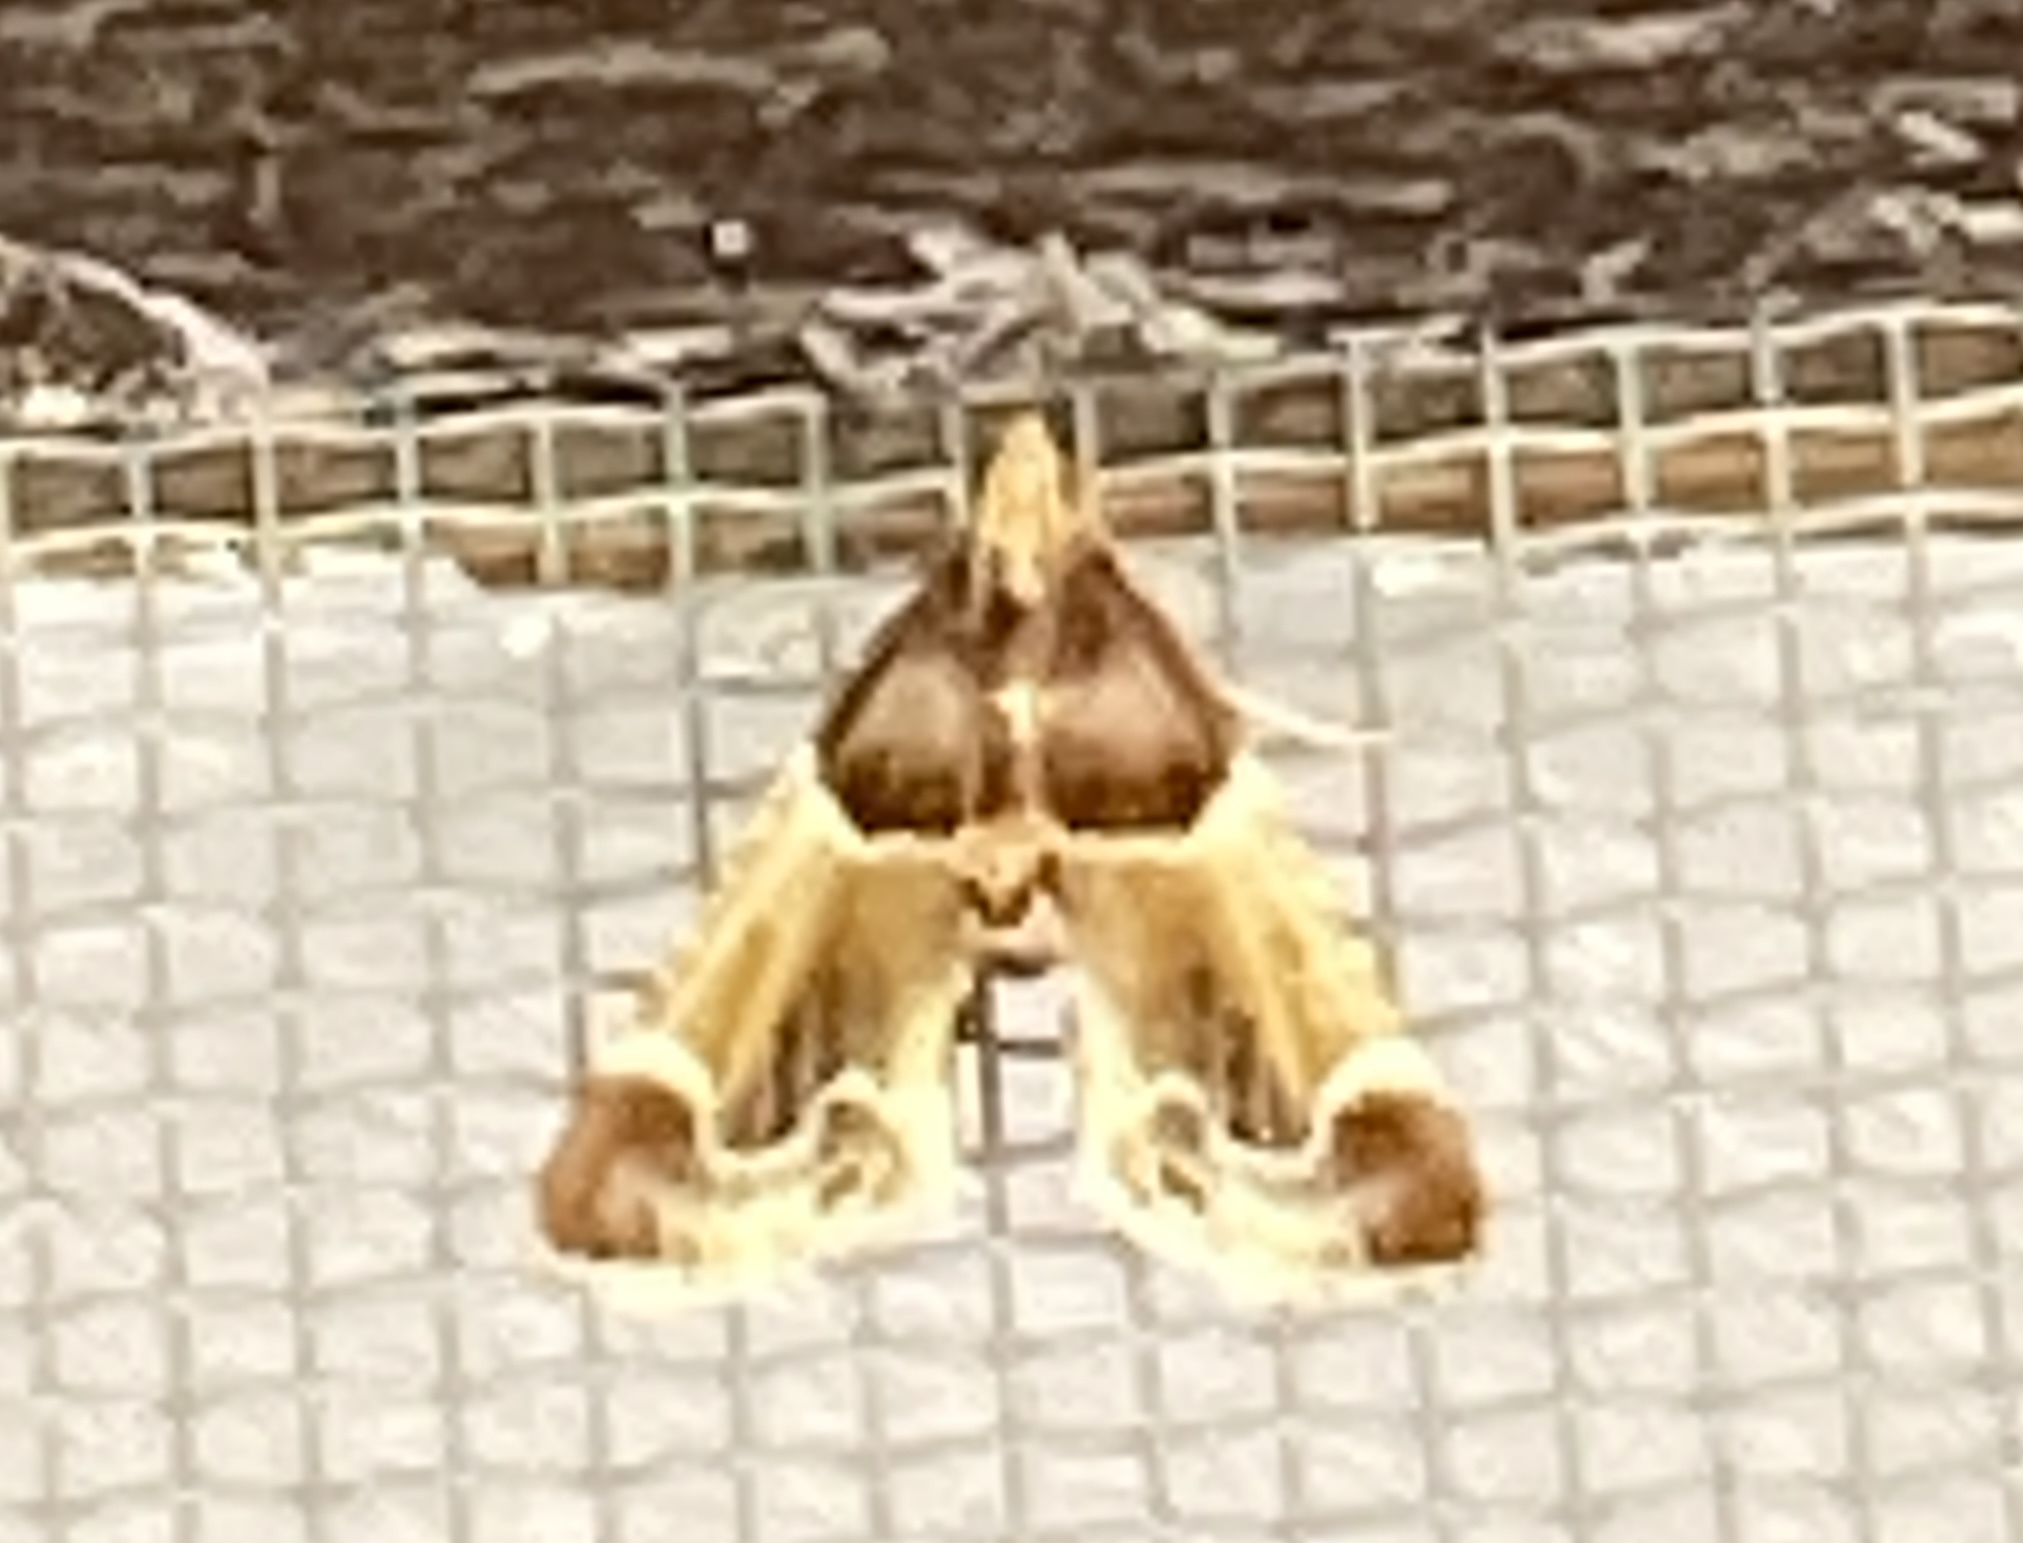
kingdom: Animalia
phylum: Arthropoda
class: Insecta
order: Lepidoptera
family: Pyralidae
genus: Pyralis
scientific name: Pyralis farinalis
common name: Meal moth
